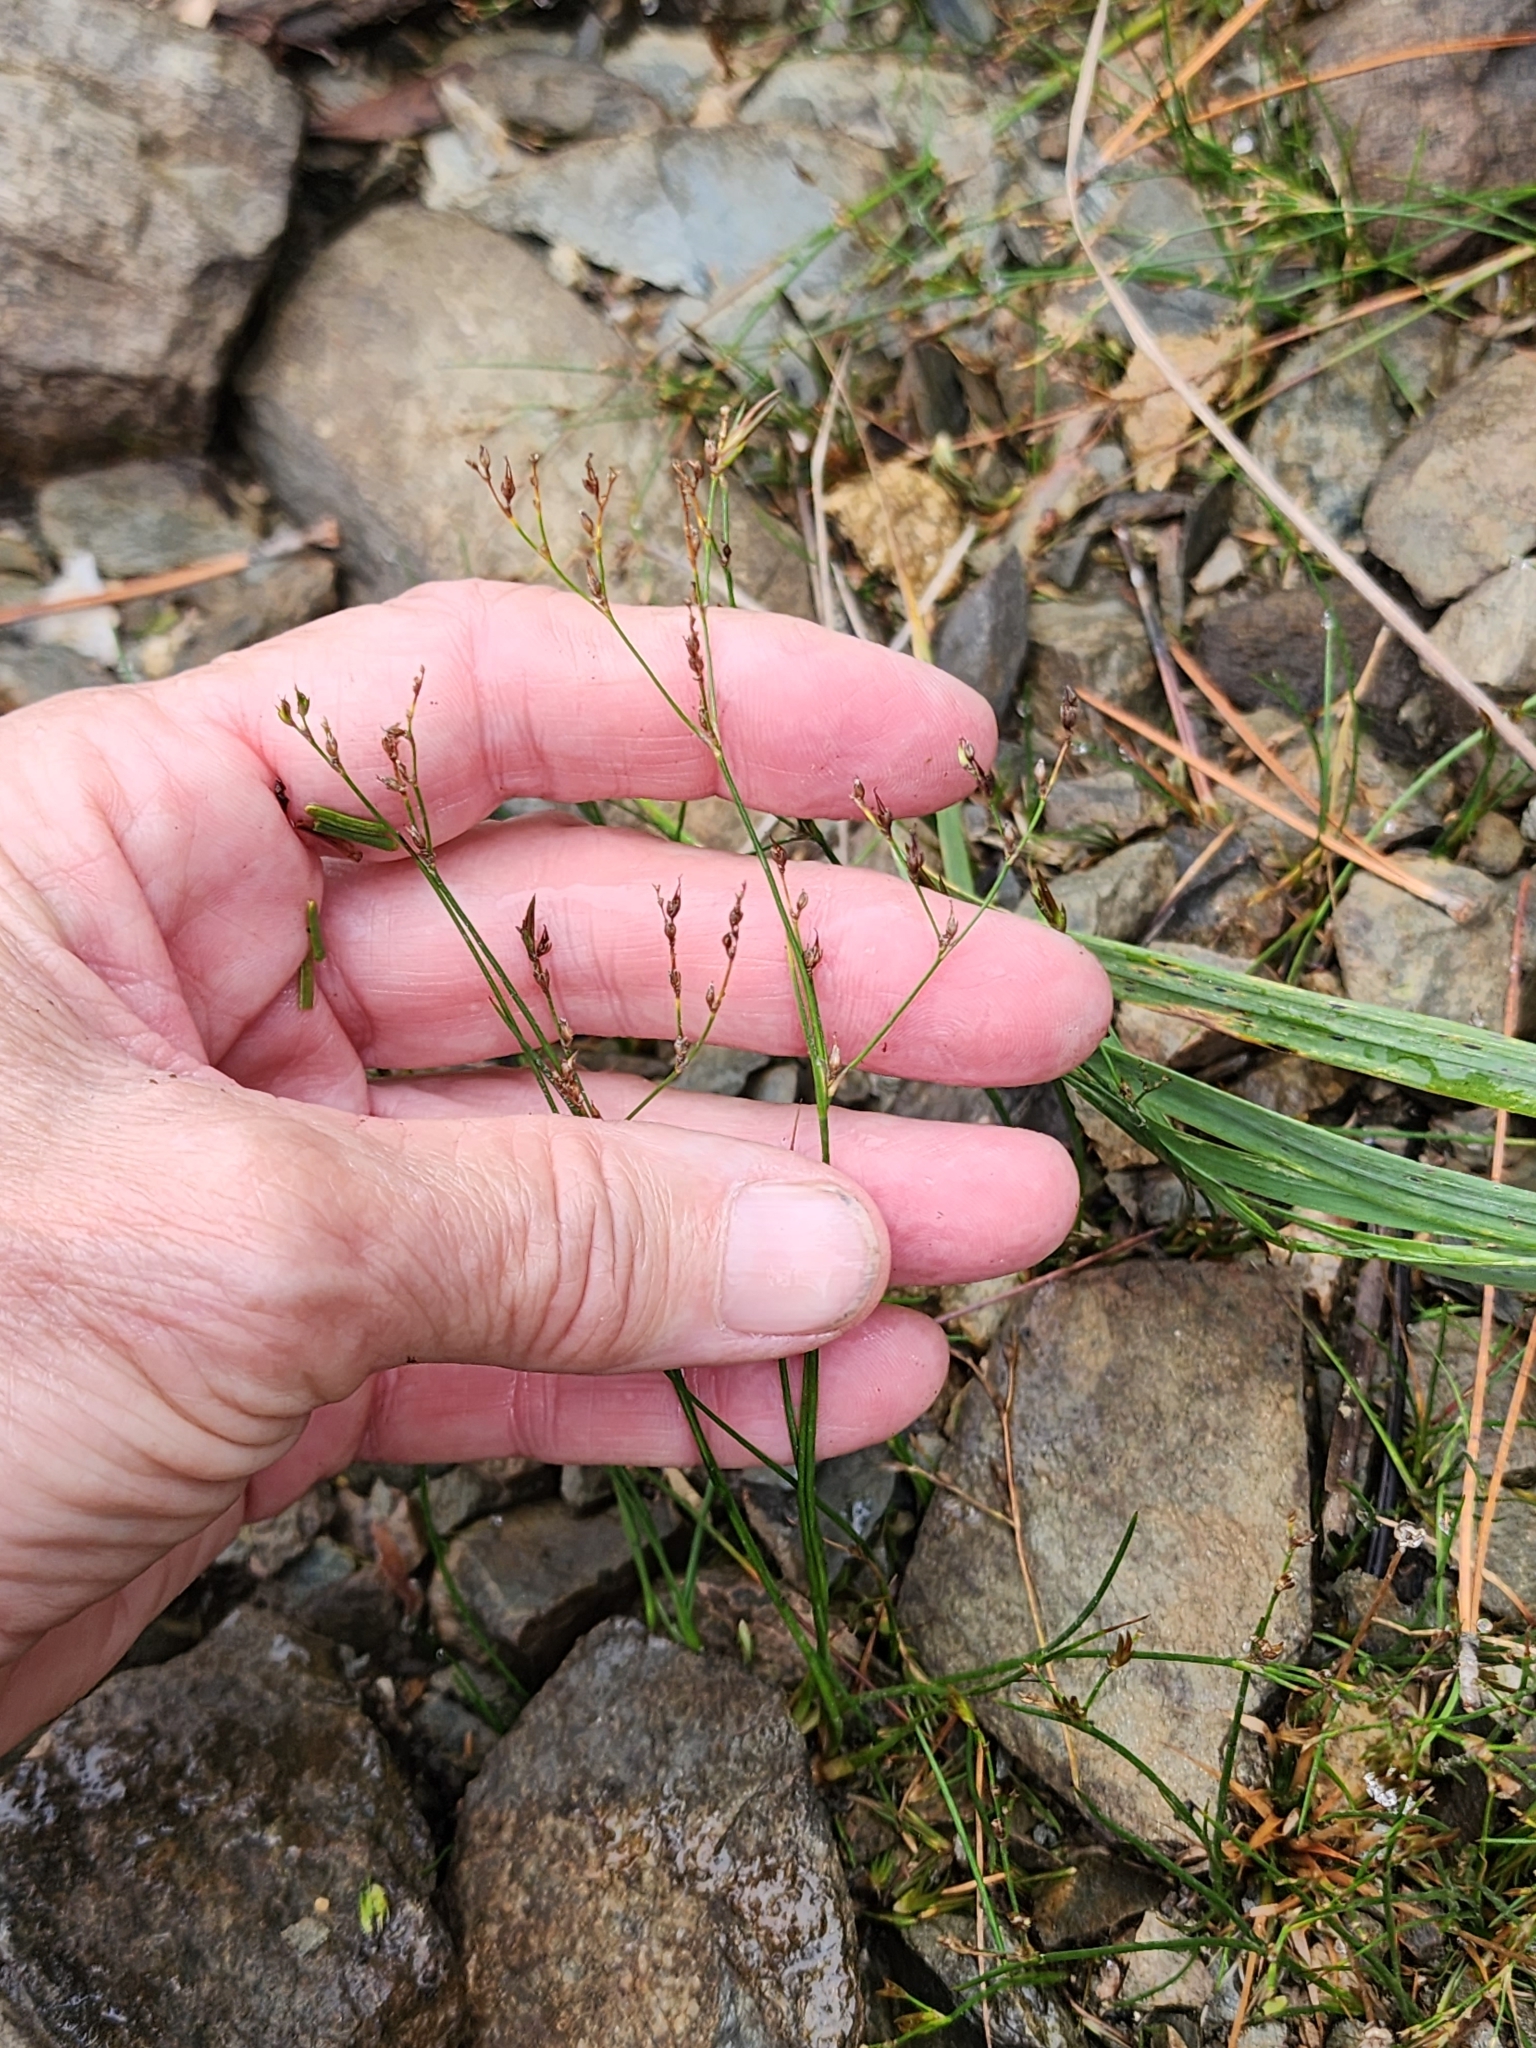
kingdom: Plantae
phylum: Tracheophyta
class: Liliopsida
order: Poales
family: Juncaceae
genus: Juncus
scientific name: Juncus pelocarpus
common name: Brown-fruited rush
